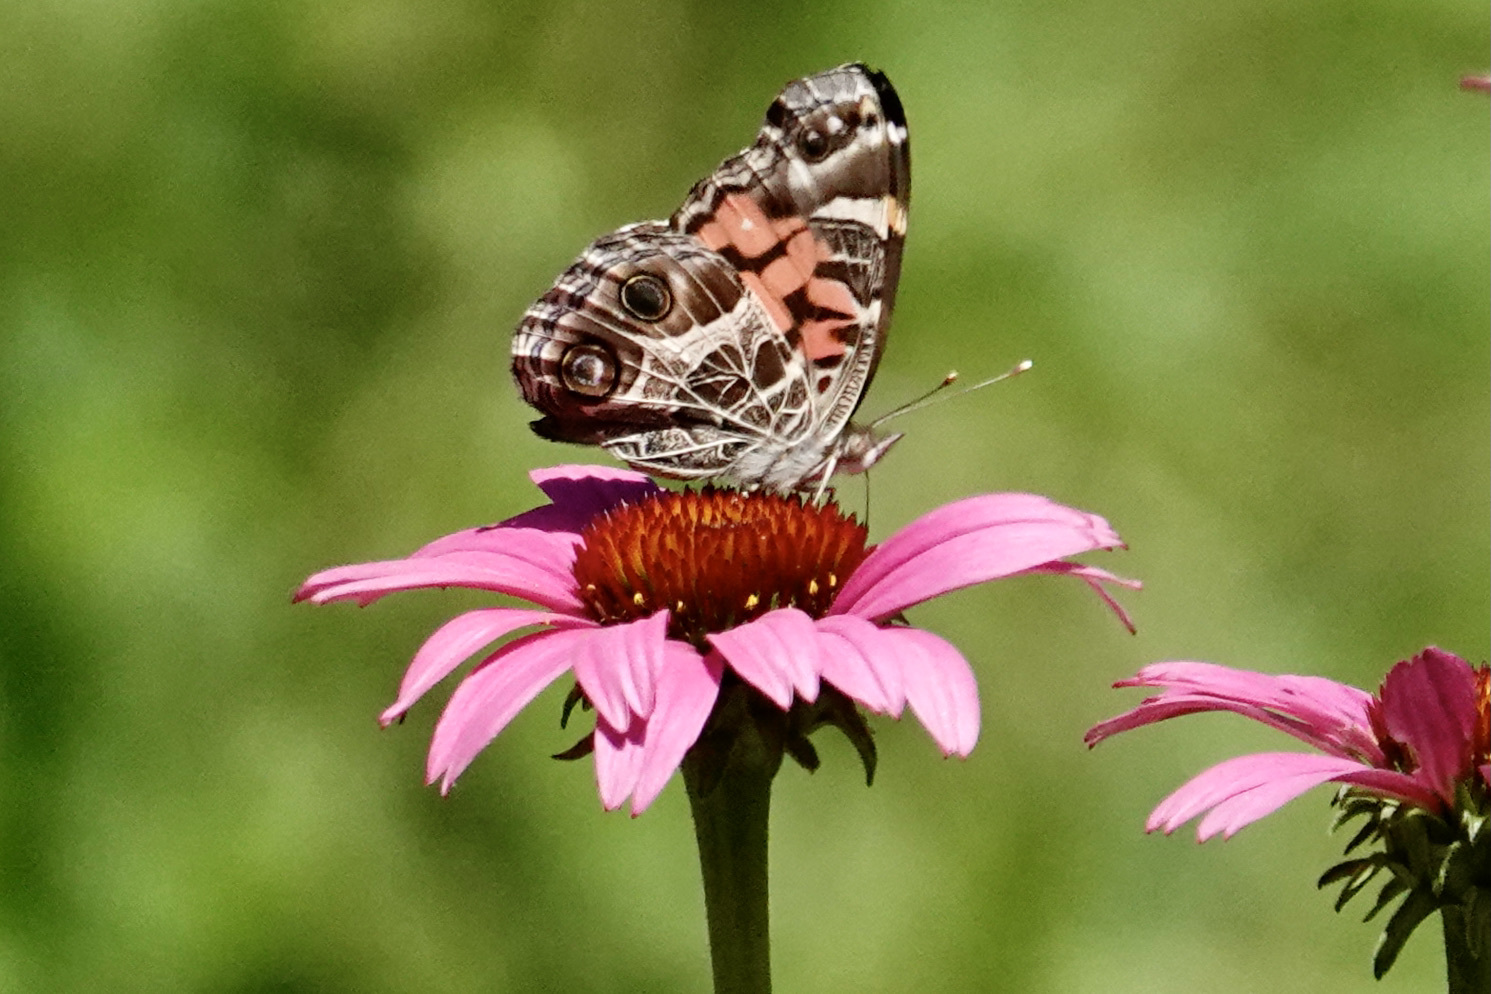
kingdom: Animalia
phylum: Arthropoda
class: Insecta
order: Lepidoptera
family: Nymphalidae
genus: Vanessa
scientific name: Vanessa virginiensis
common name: American lady
